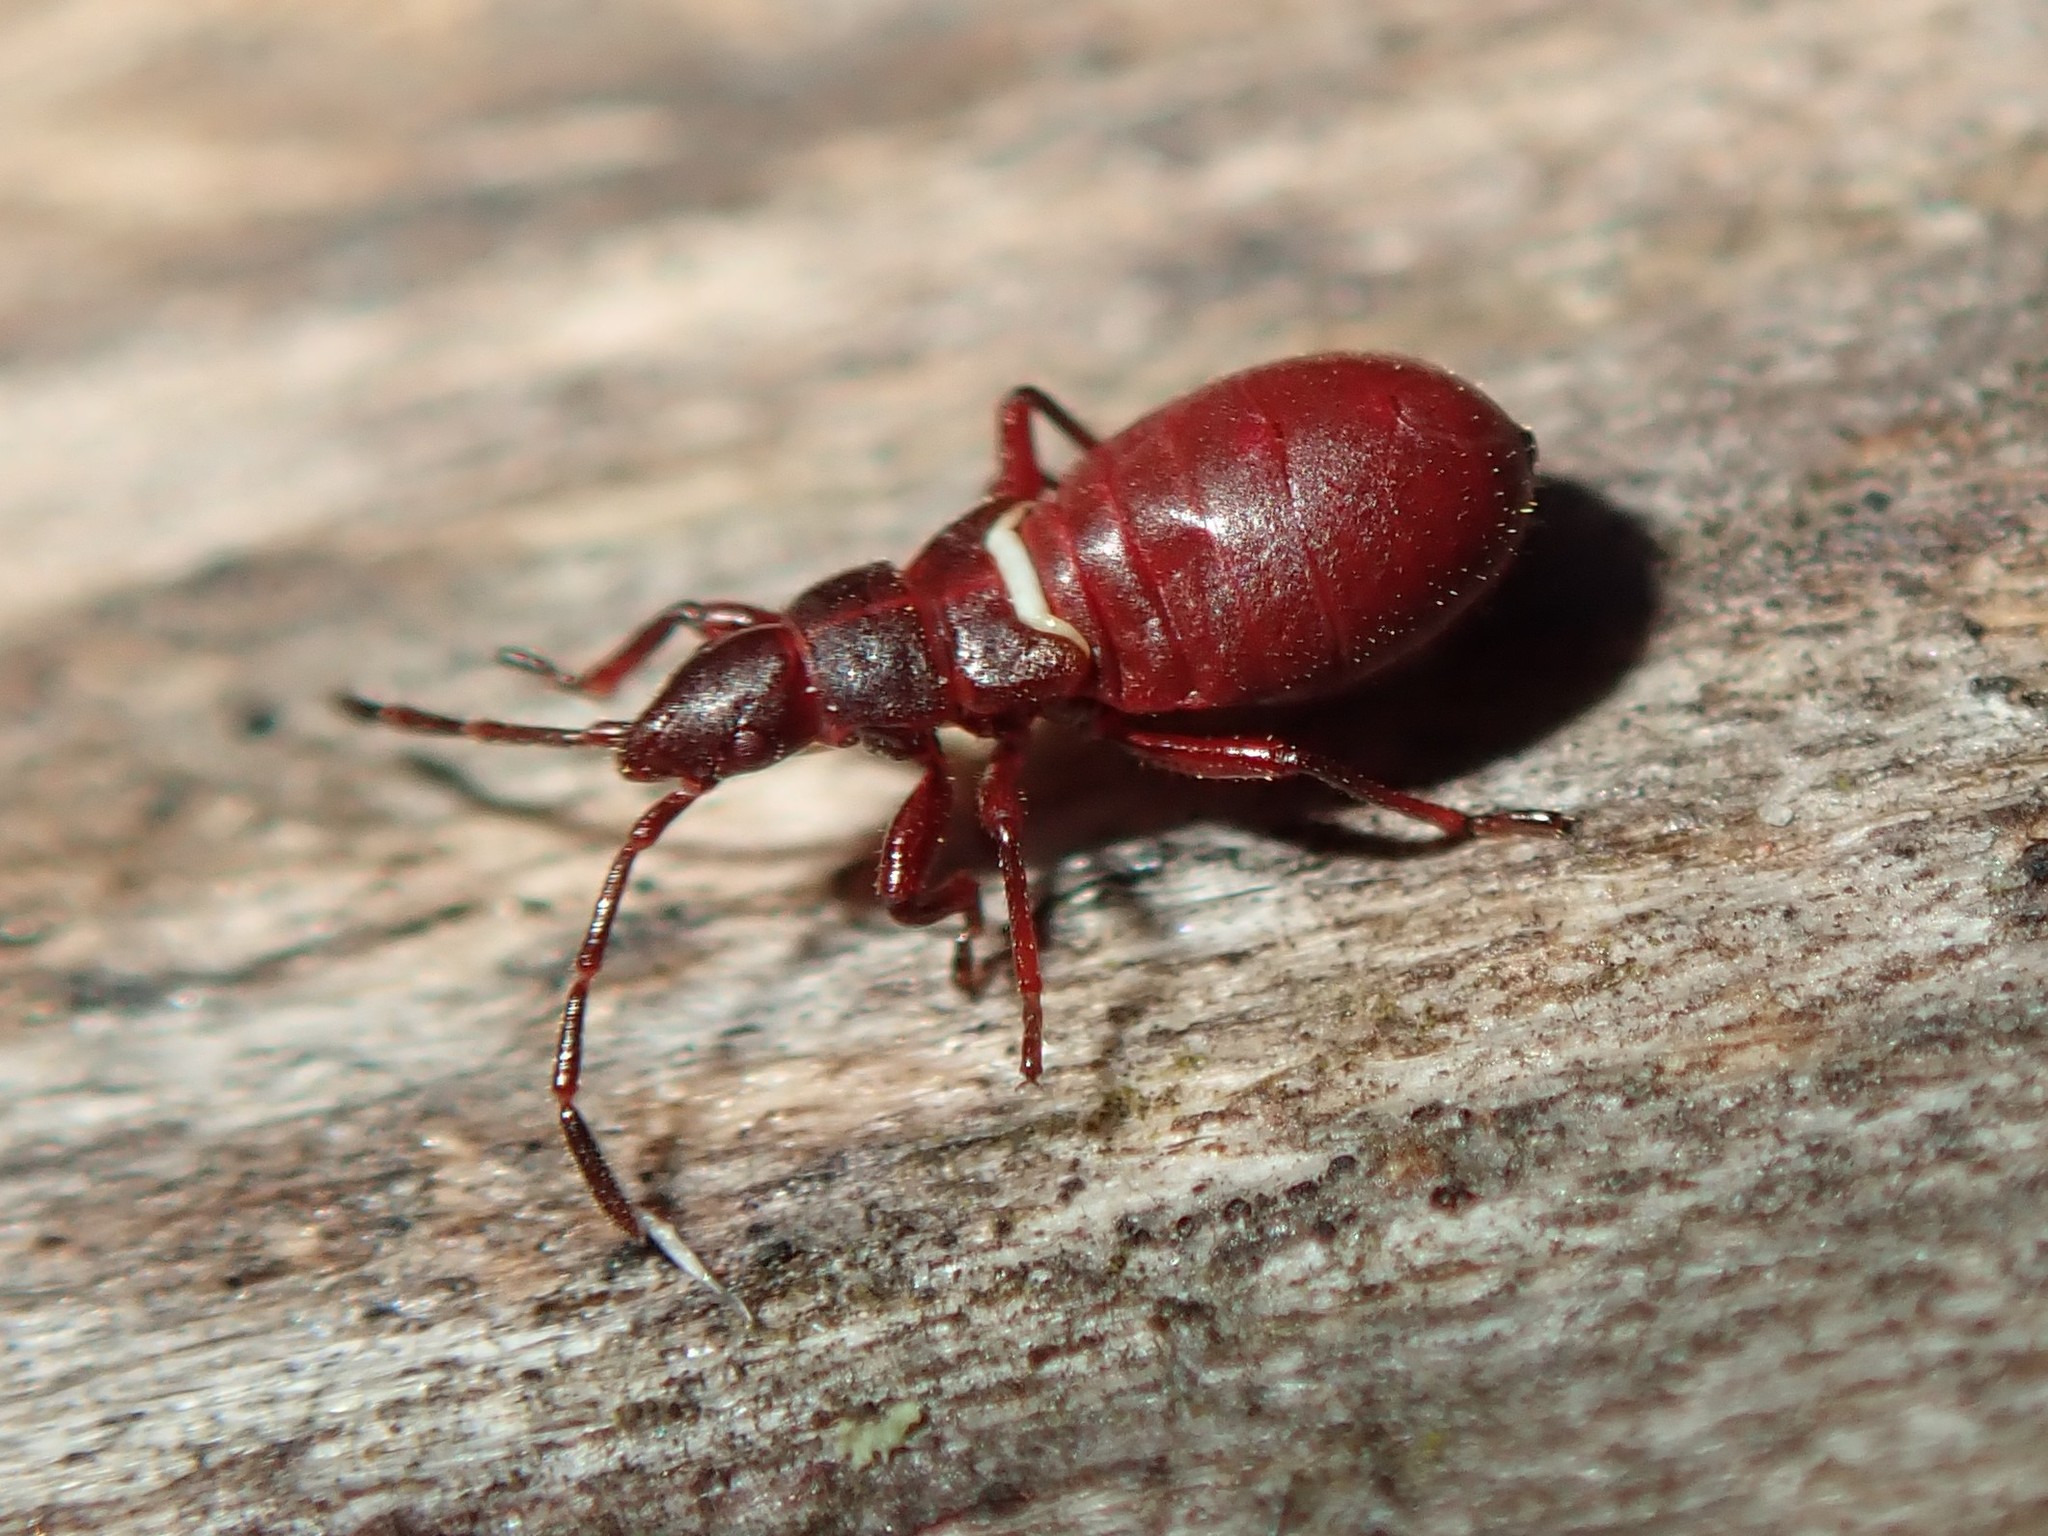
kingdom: Animalia
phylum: Arthropoda
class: Insecta
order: Hemiptera
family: Oxycarenidae
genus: Oxycarenus
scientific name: Oxycarenus lavaterae
